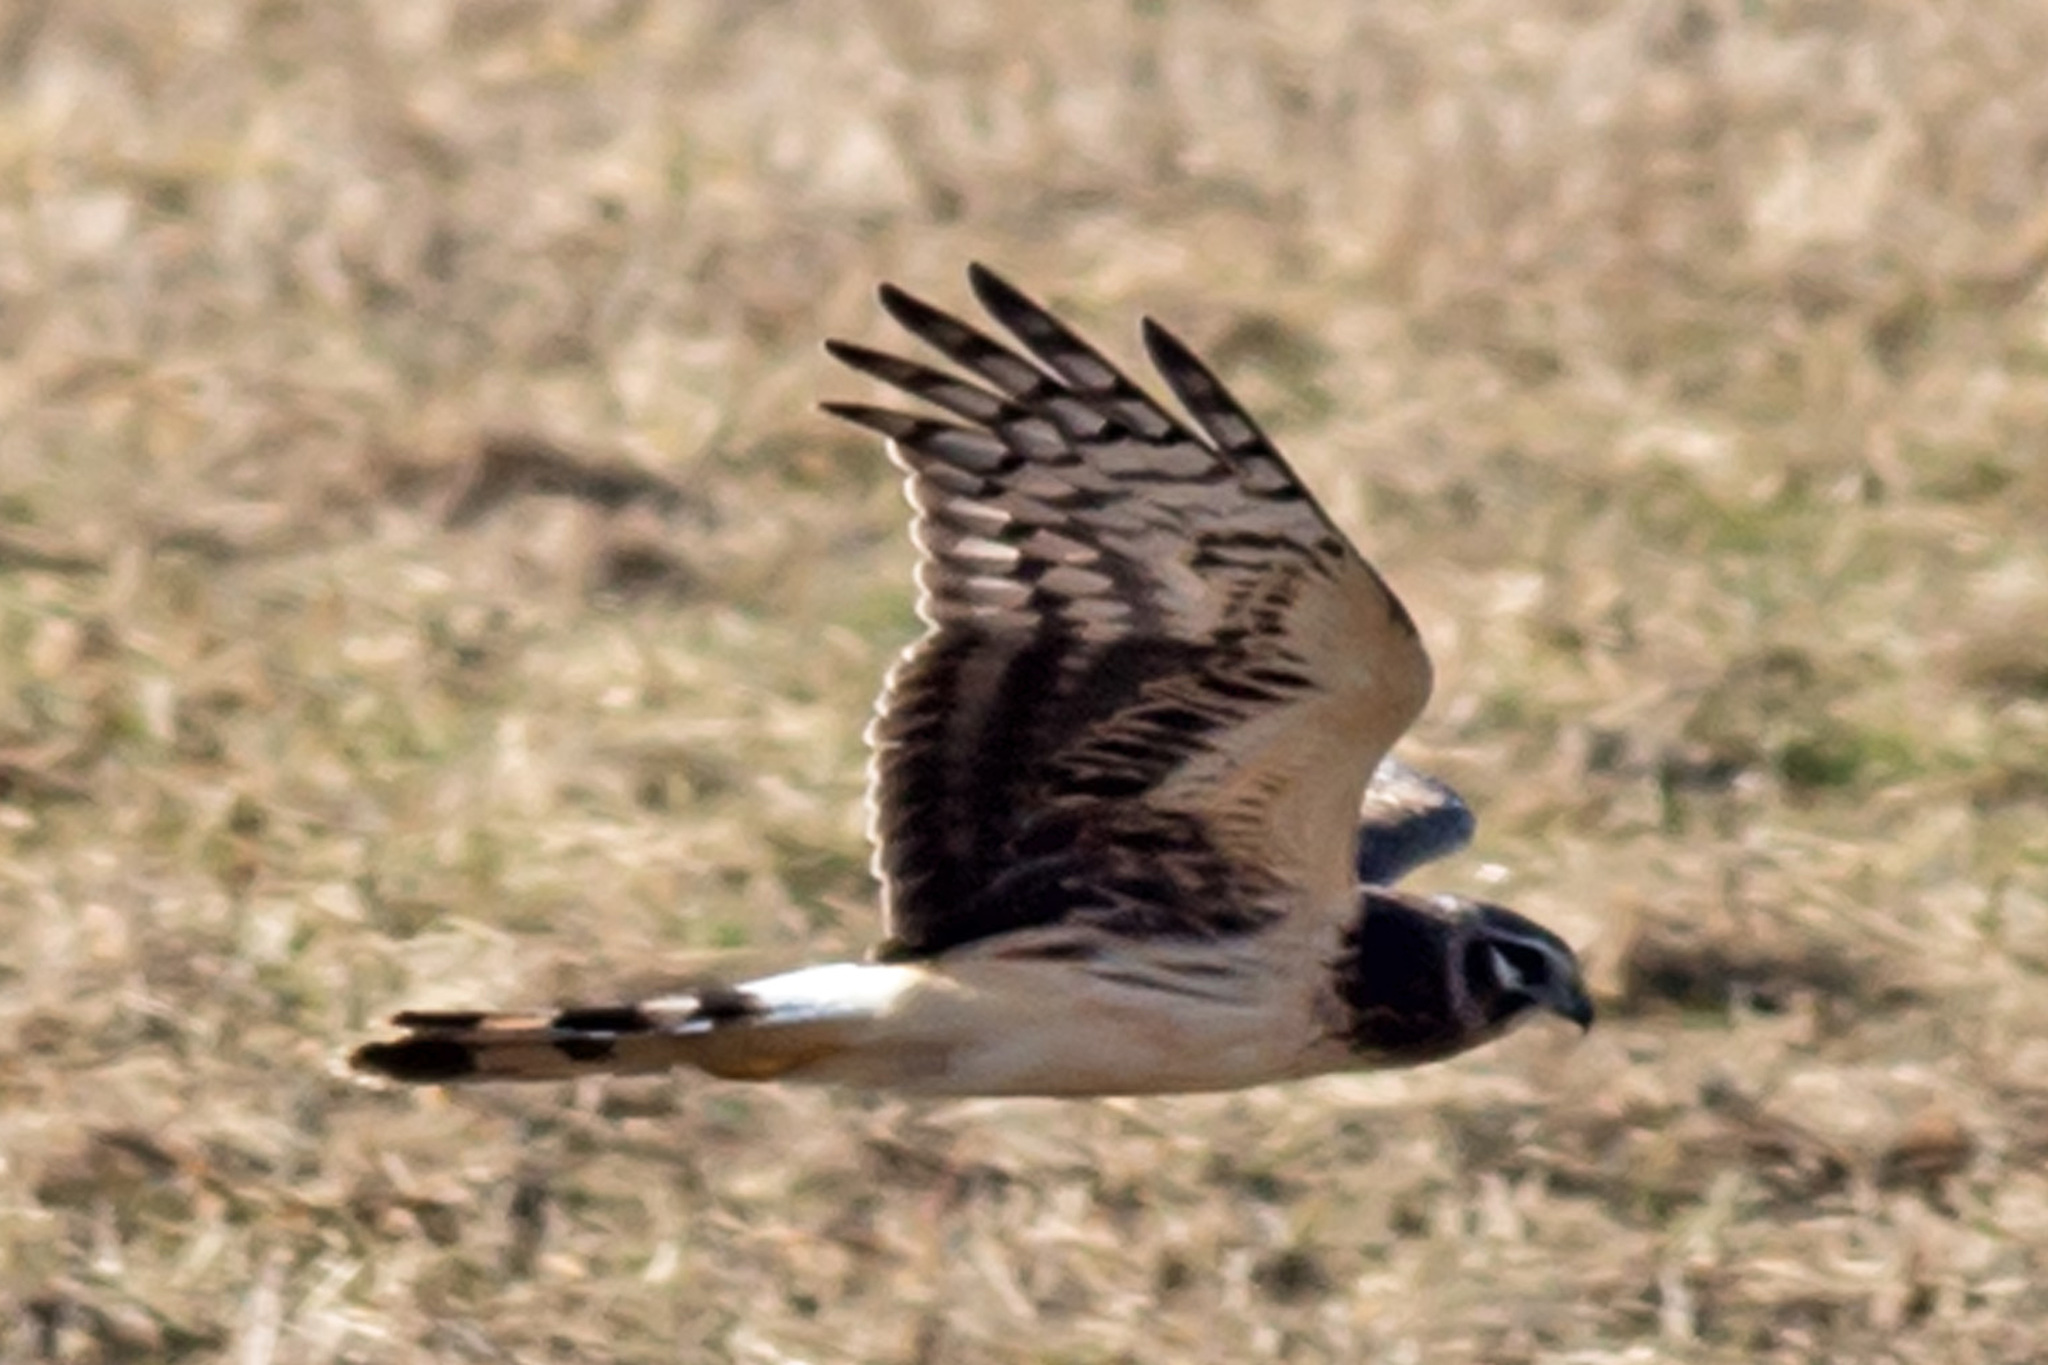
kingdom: Animalia
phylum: Chordata
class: Aves
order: Accipitriformes
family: Accipitridae
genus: Circus
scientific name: Circus cyaneus
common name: Hen harrier
